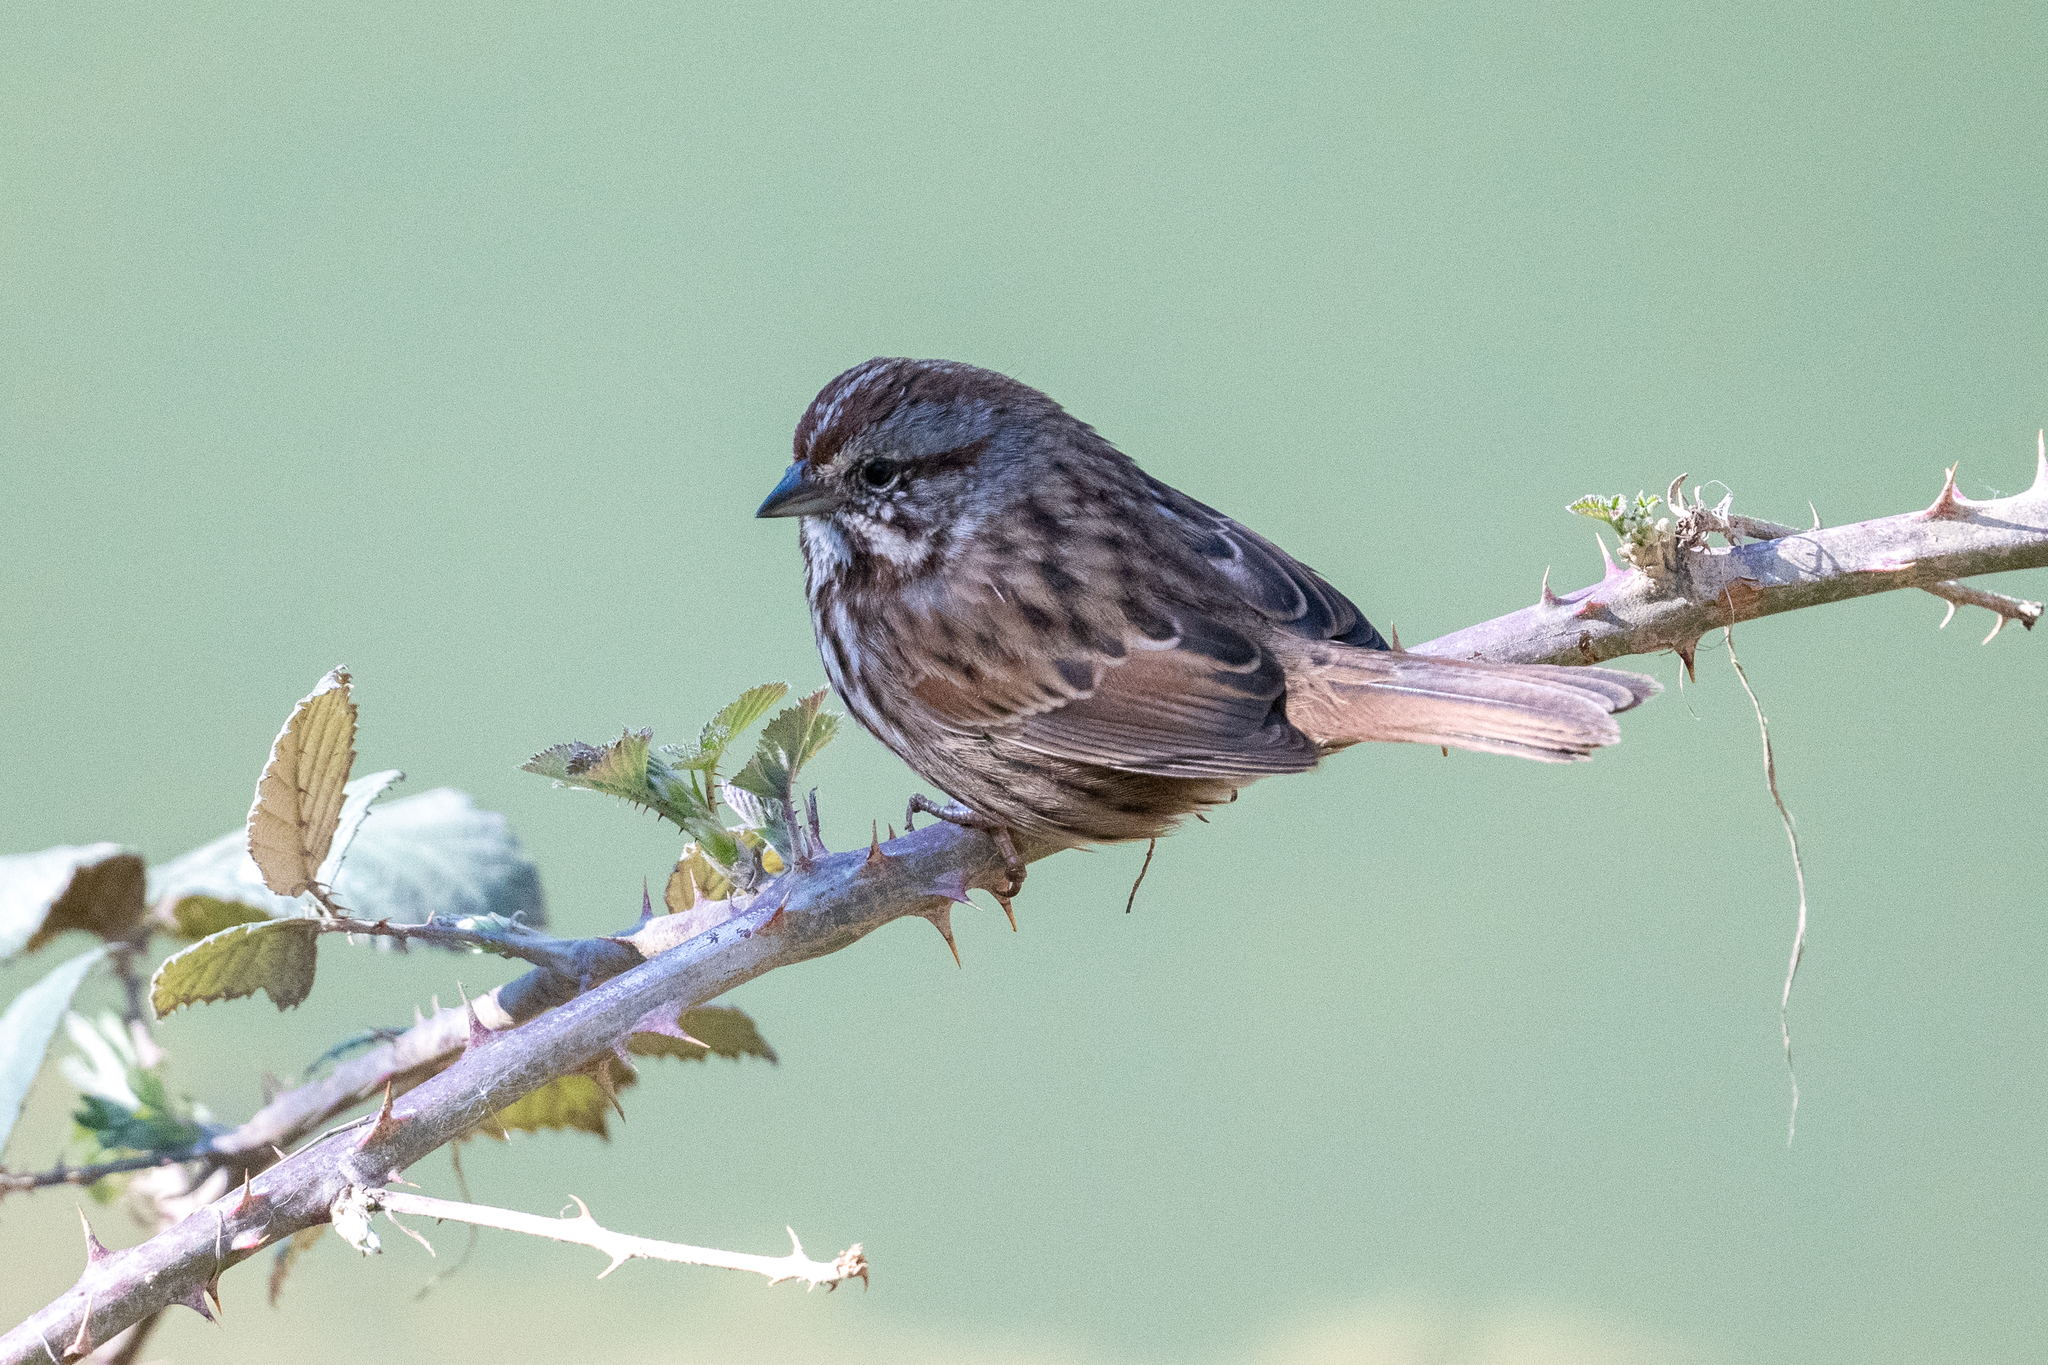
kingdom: Animalia
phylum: Chordata
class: Aves
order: Passeriformes
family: Passerellidae
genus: Melospiza
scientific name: Melospiza melodia
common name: Song sparrow
